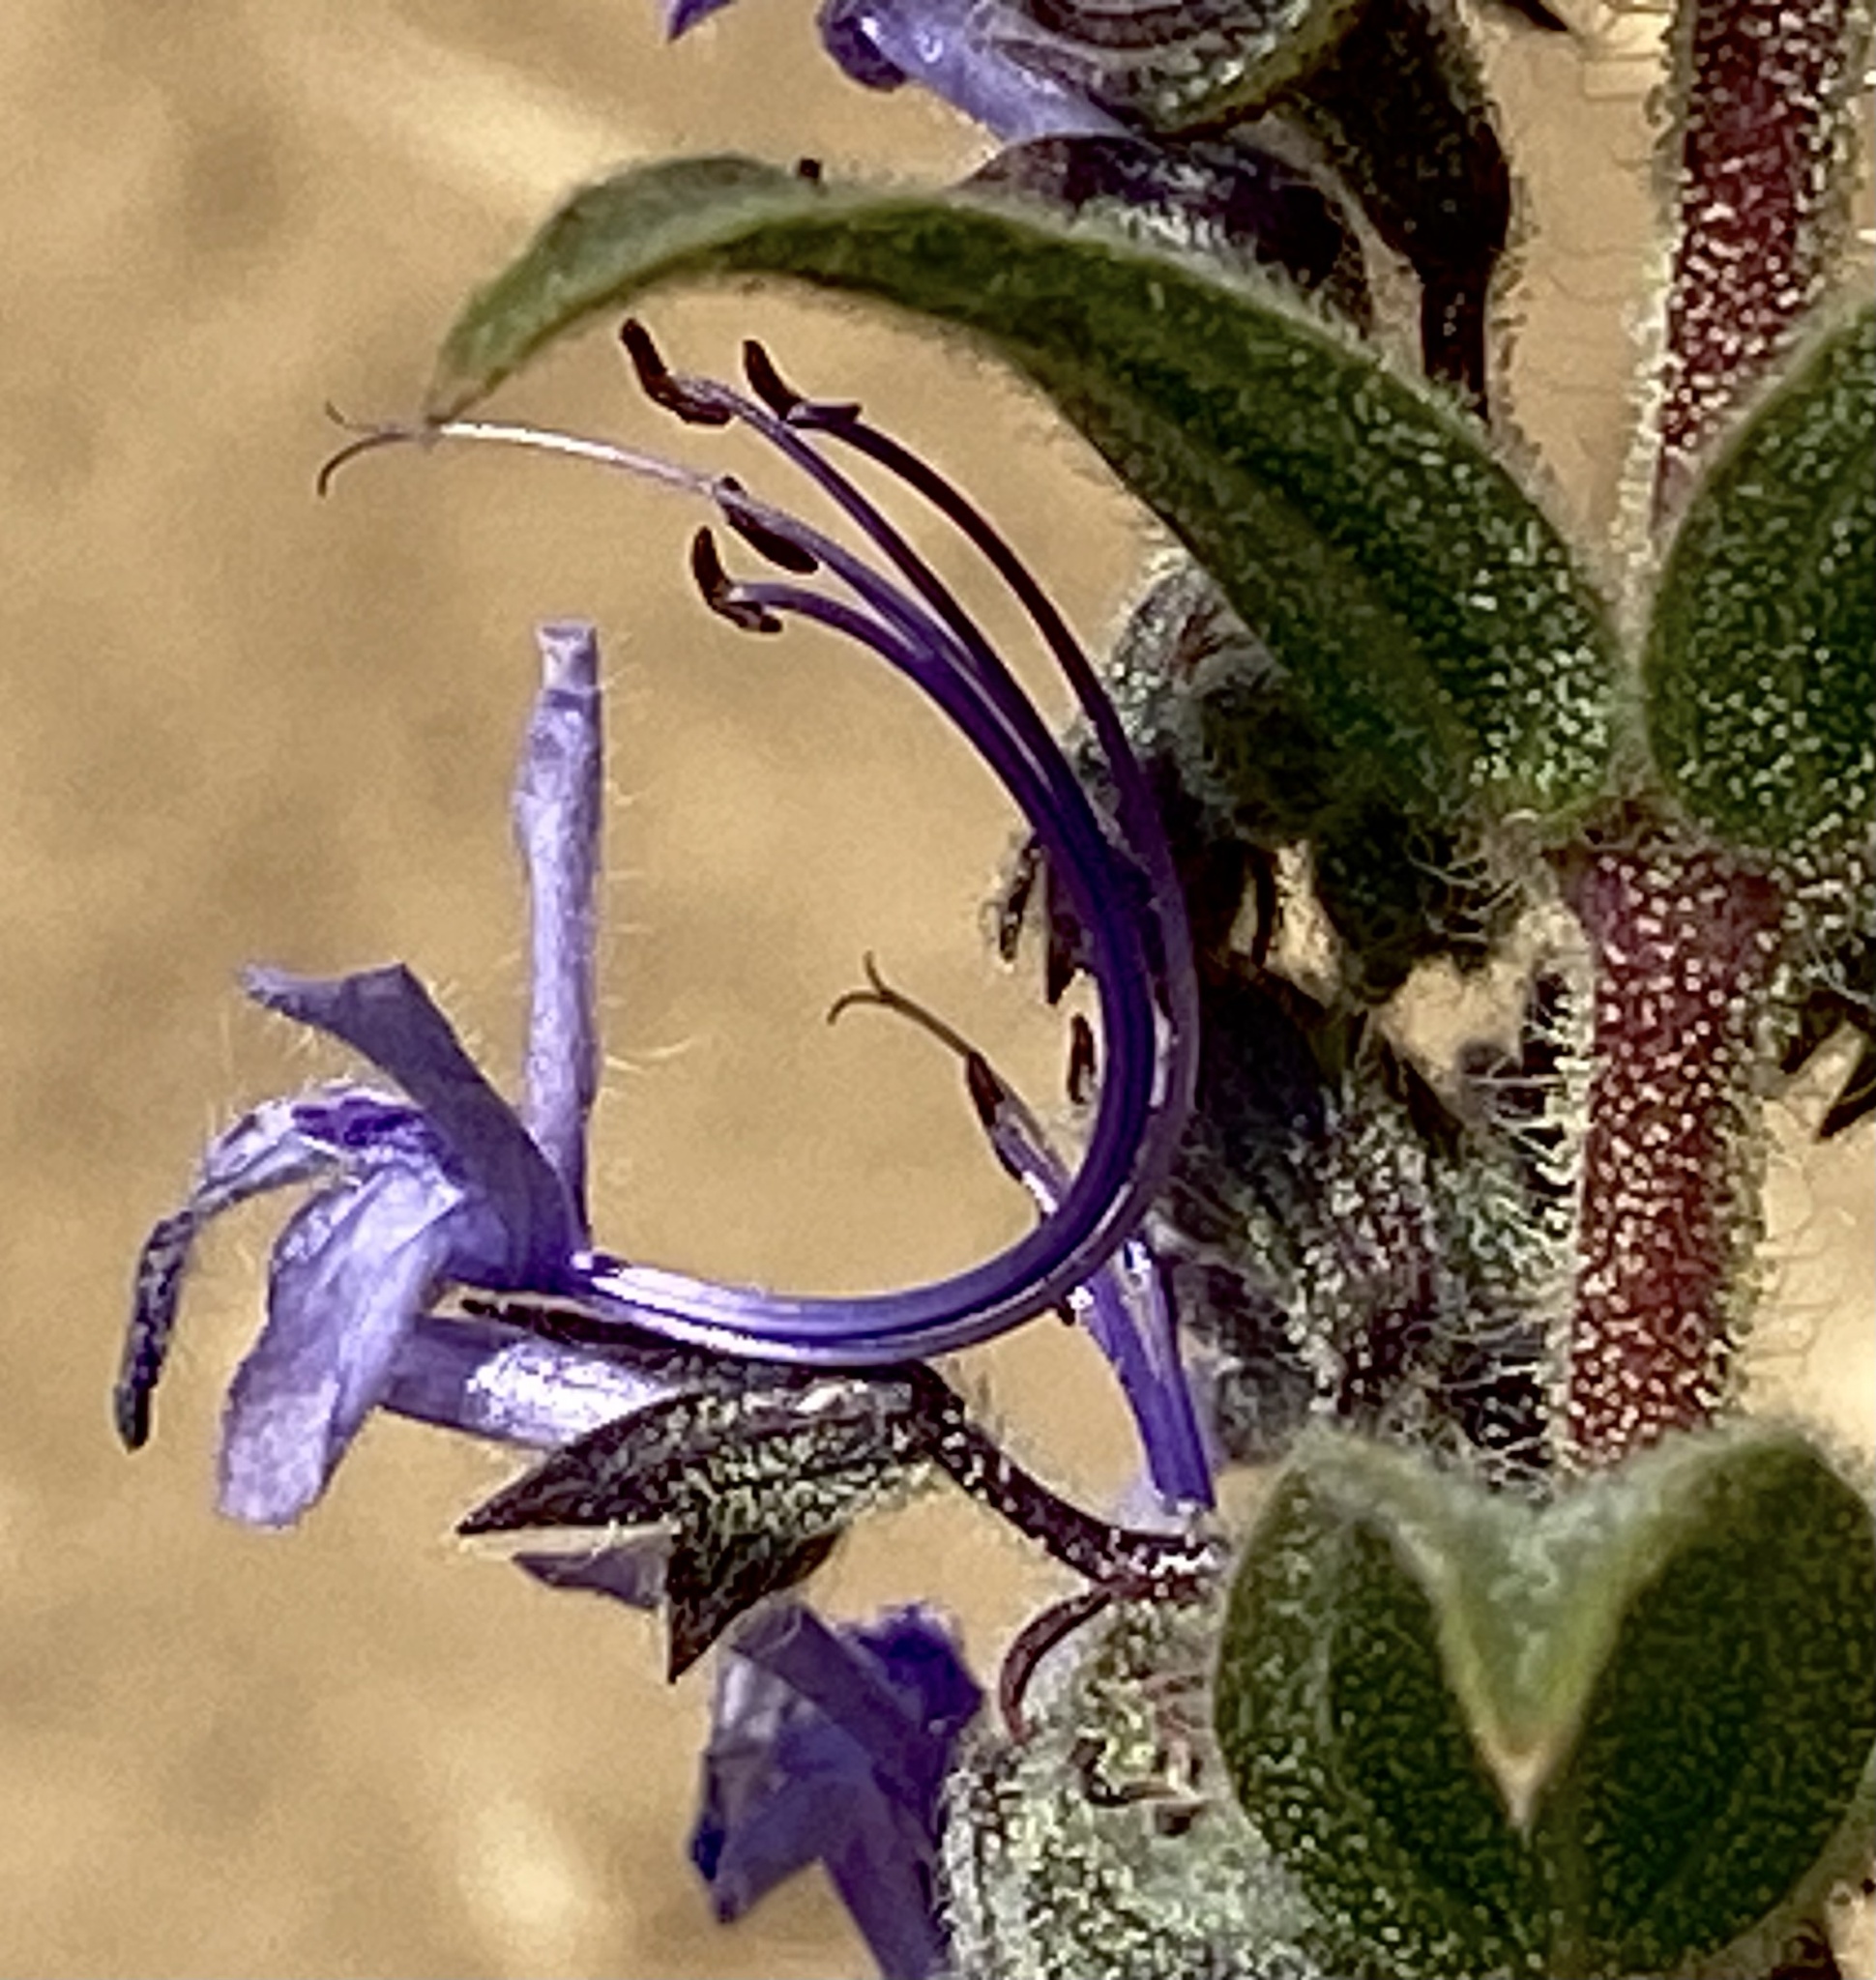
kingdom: Plantae
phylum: Tracheophyta
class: Magnoliopsida
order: Lamiales
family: Lamiaceae
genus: Trichostema
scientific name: Trichostema lanceolatum
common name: Vinegar-weed
